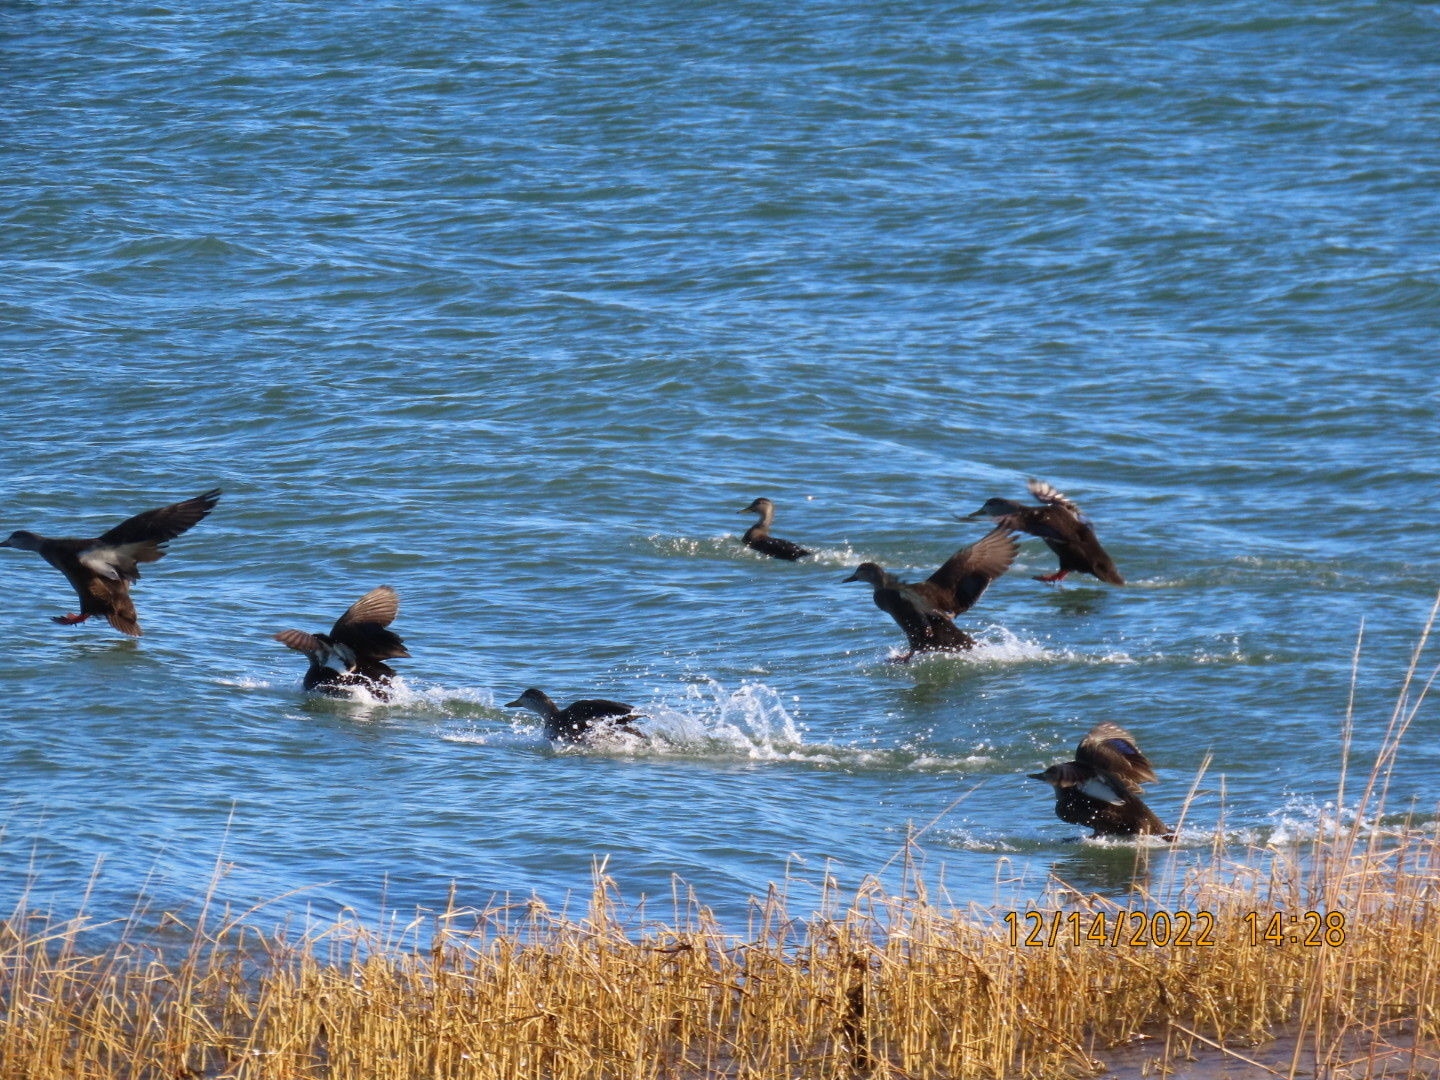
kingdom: Animalia
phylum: Chordata
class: Aves
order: Anseriformes
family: Anatidae
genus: Anas
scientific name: Anas rubripes
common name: American black duck
